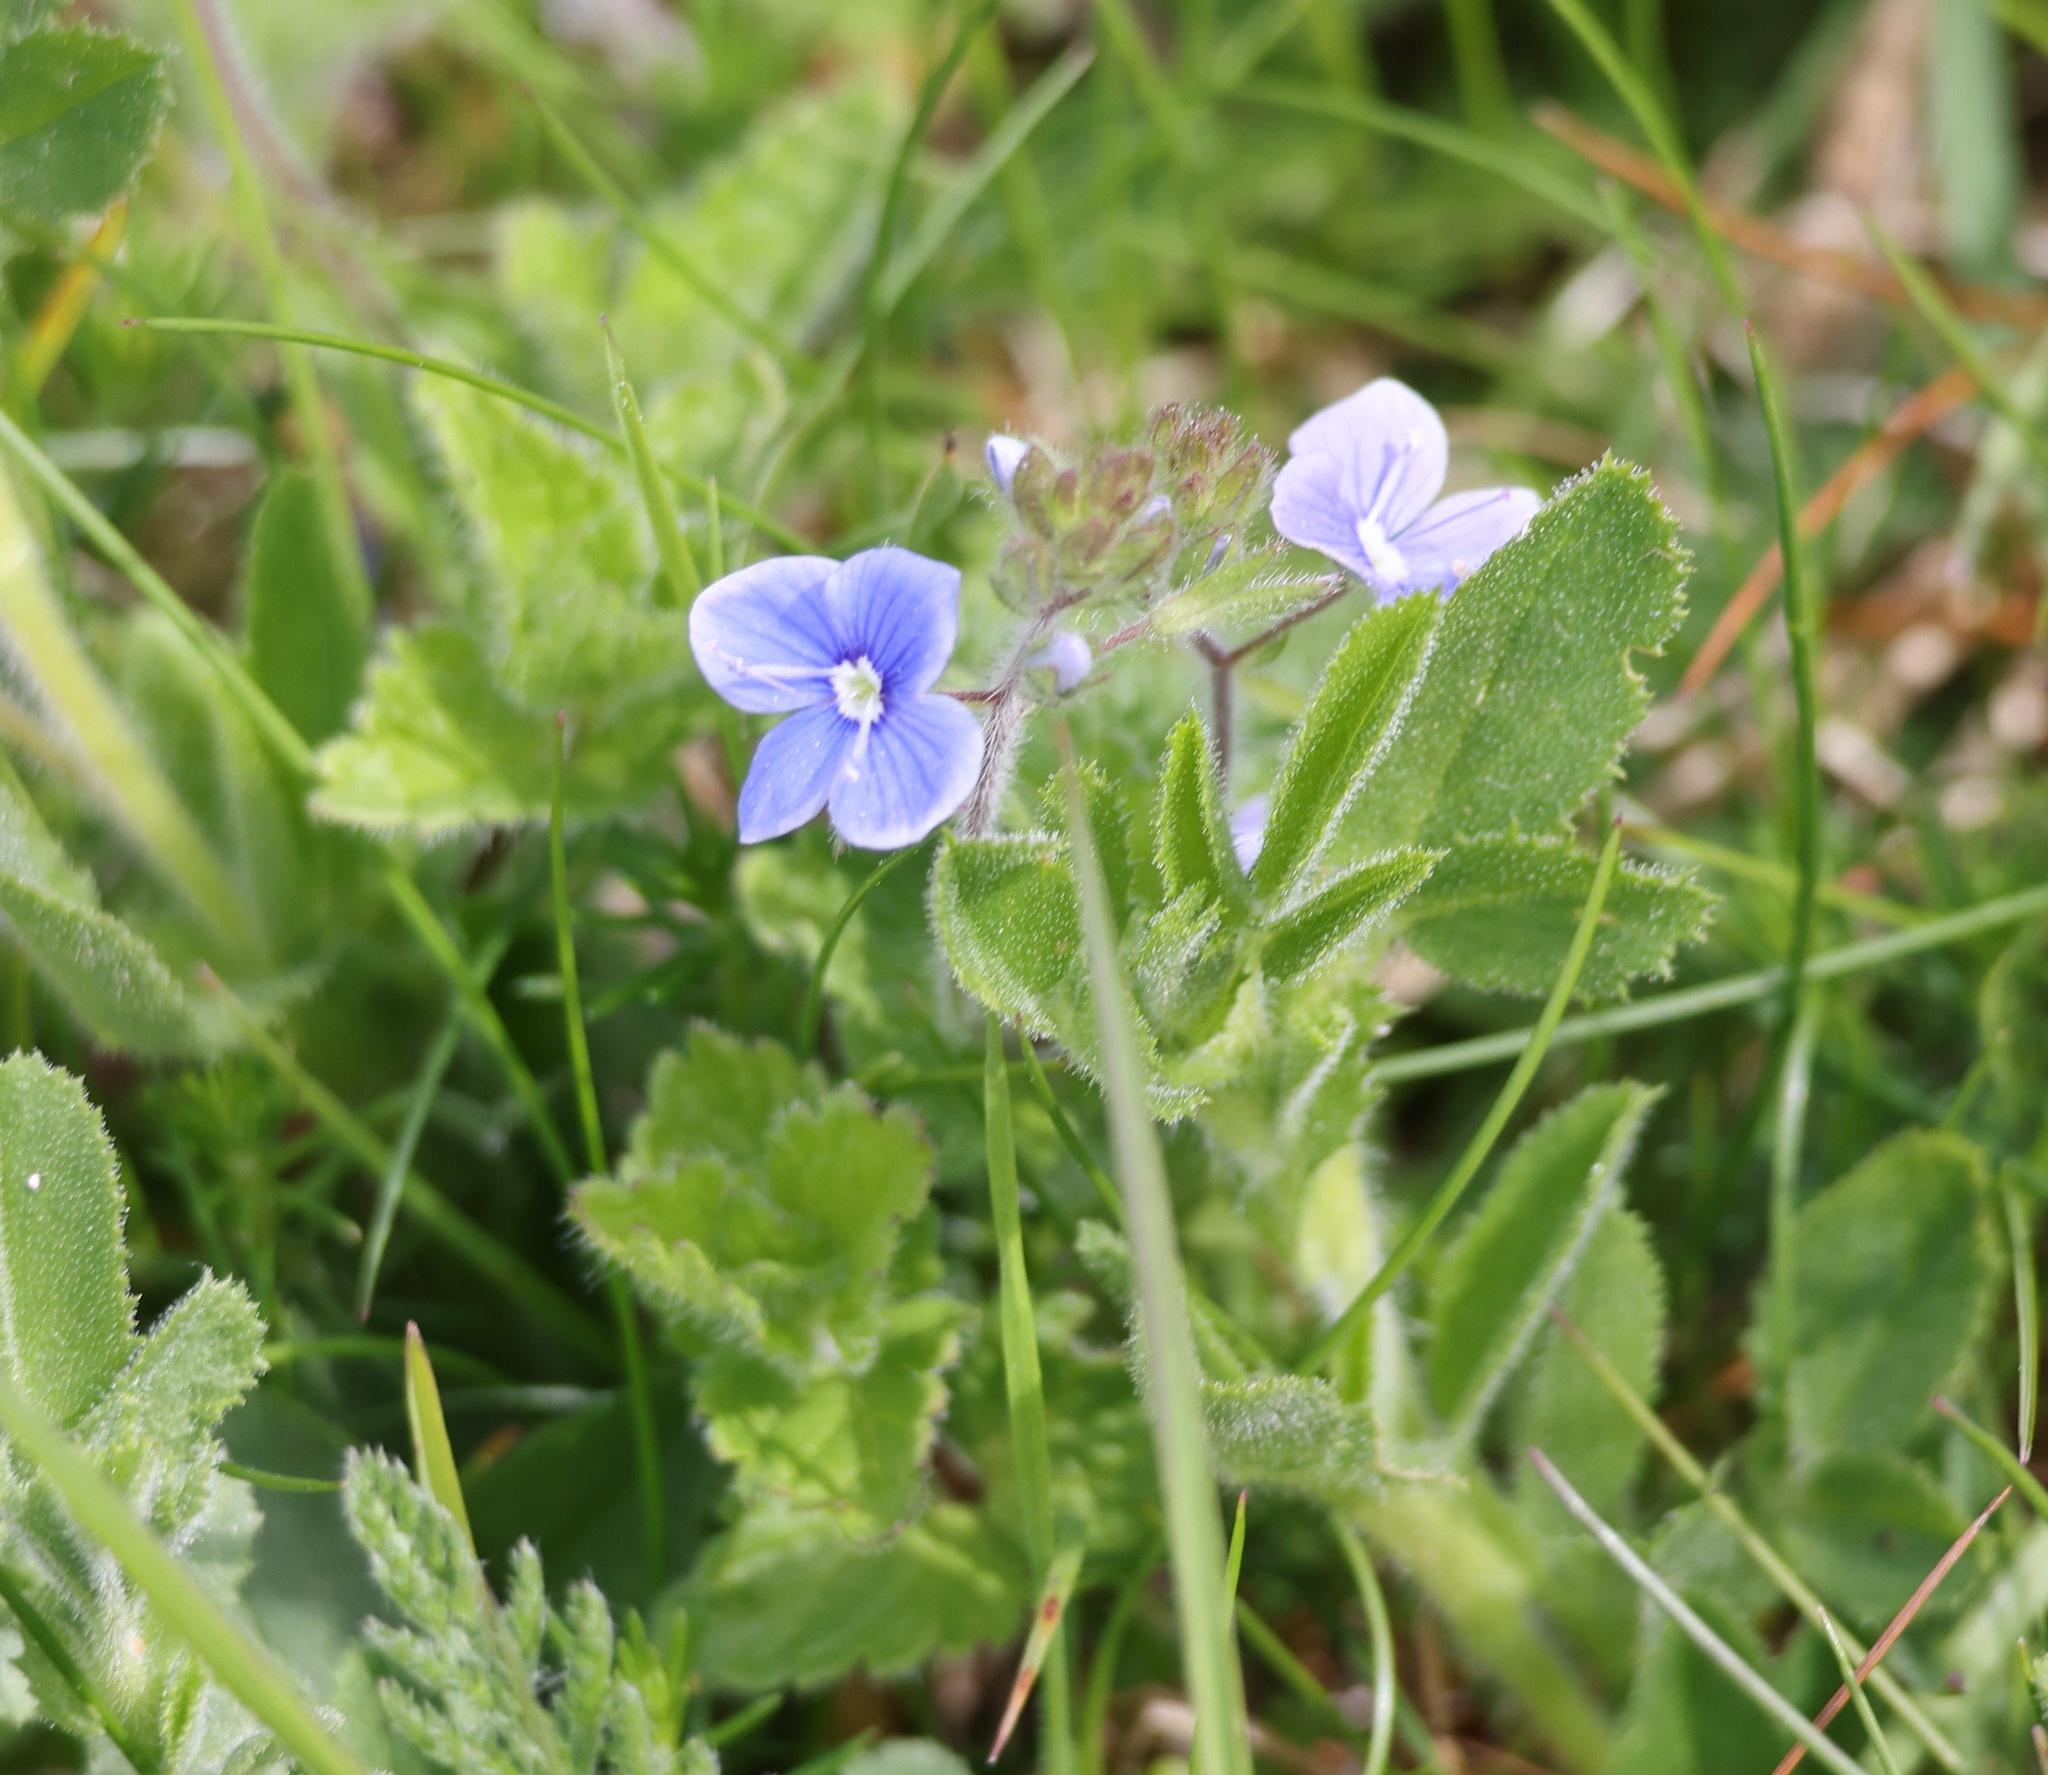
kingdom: Plantae
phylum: Tracheophyta
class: Magnoliopsida
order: Lamiales
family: Plantaginaceae
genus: Veronica
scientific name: Veronica chamaedrys
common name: Germander speedwell
